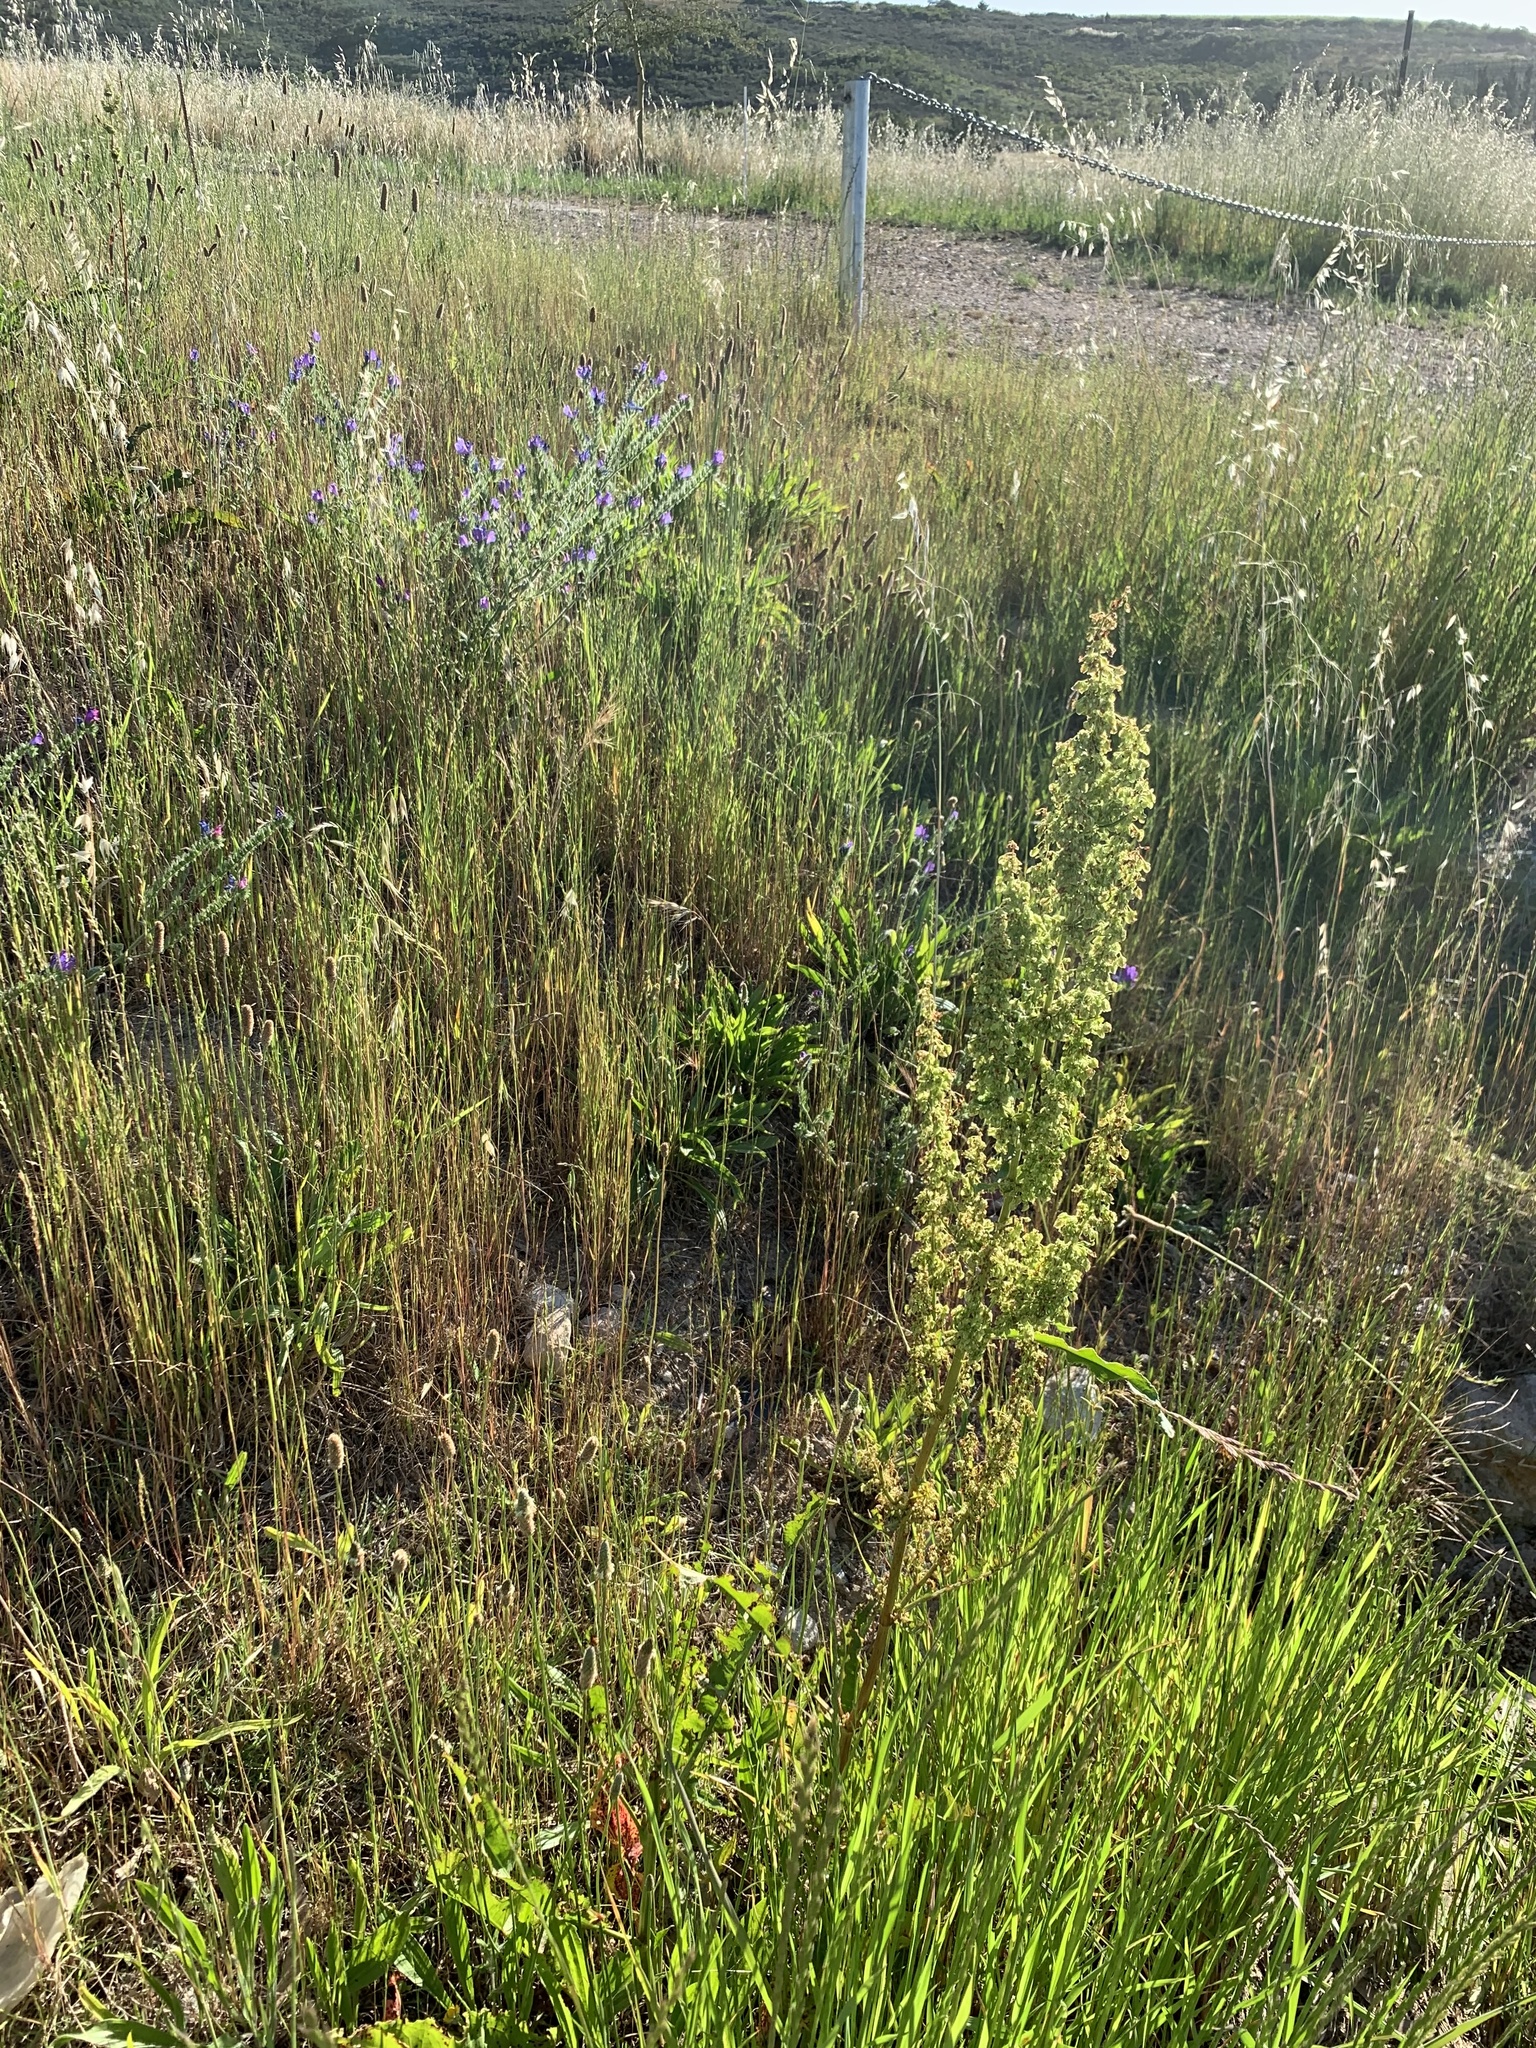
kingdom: Plantae
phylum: Tracheophyta
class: Magnoliopsida
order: Caryophyllales
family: Polygonaceae
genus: Rumex
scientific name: Rumex crispus
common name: Curled dock
